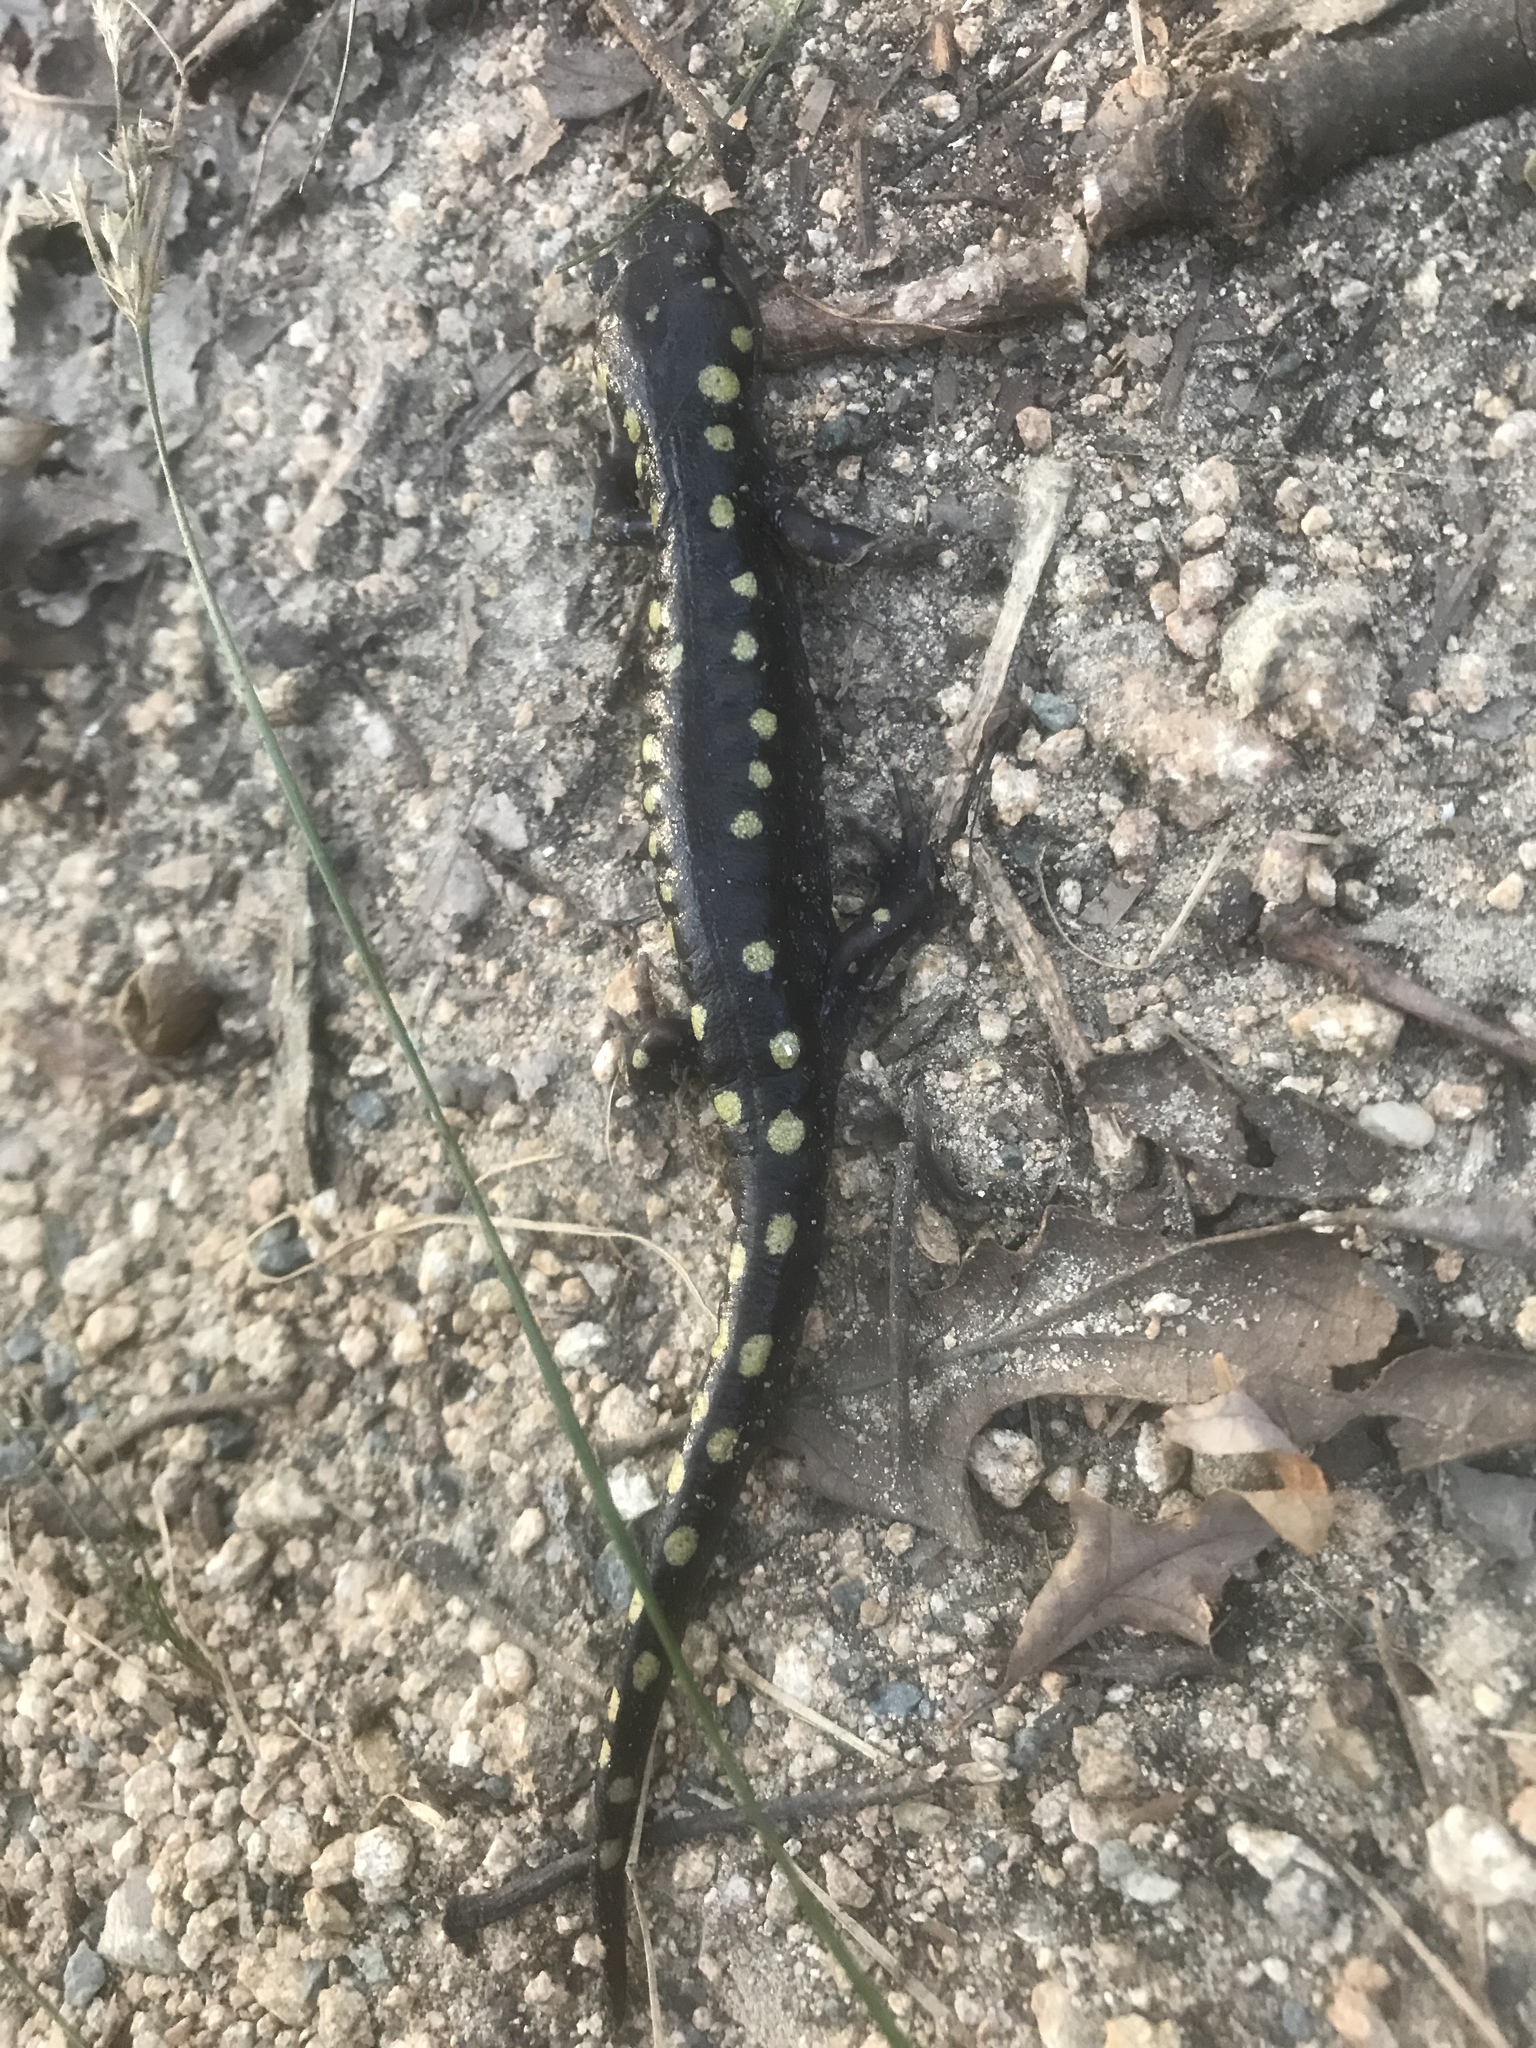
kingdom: Animalia
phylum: Chordata
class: Amphibia
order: Caudata
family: Ambystomatidae
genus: Ambystoma
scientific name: Ambystoma maculatum
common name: Spotted salamander
